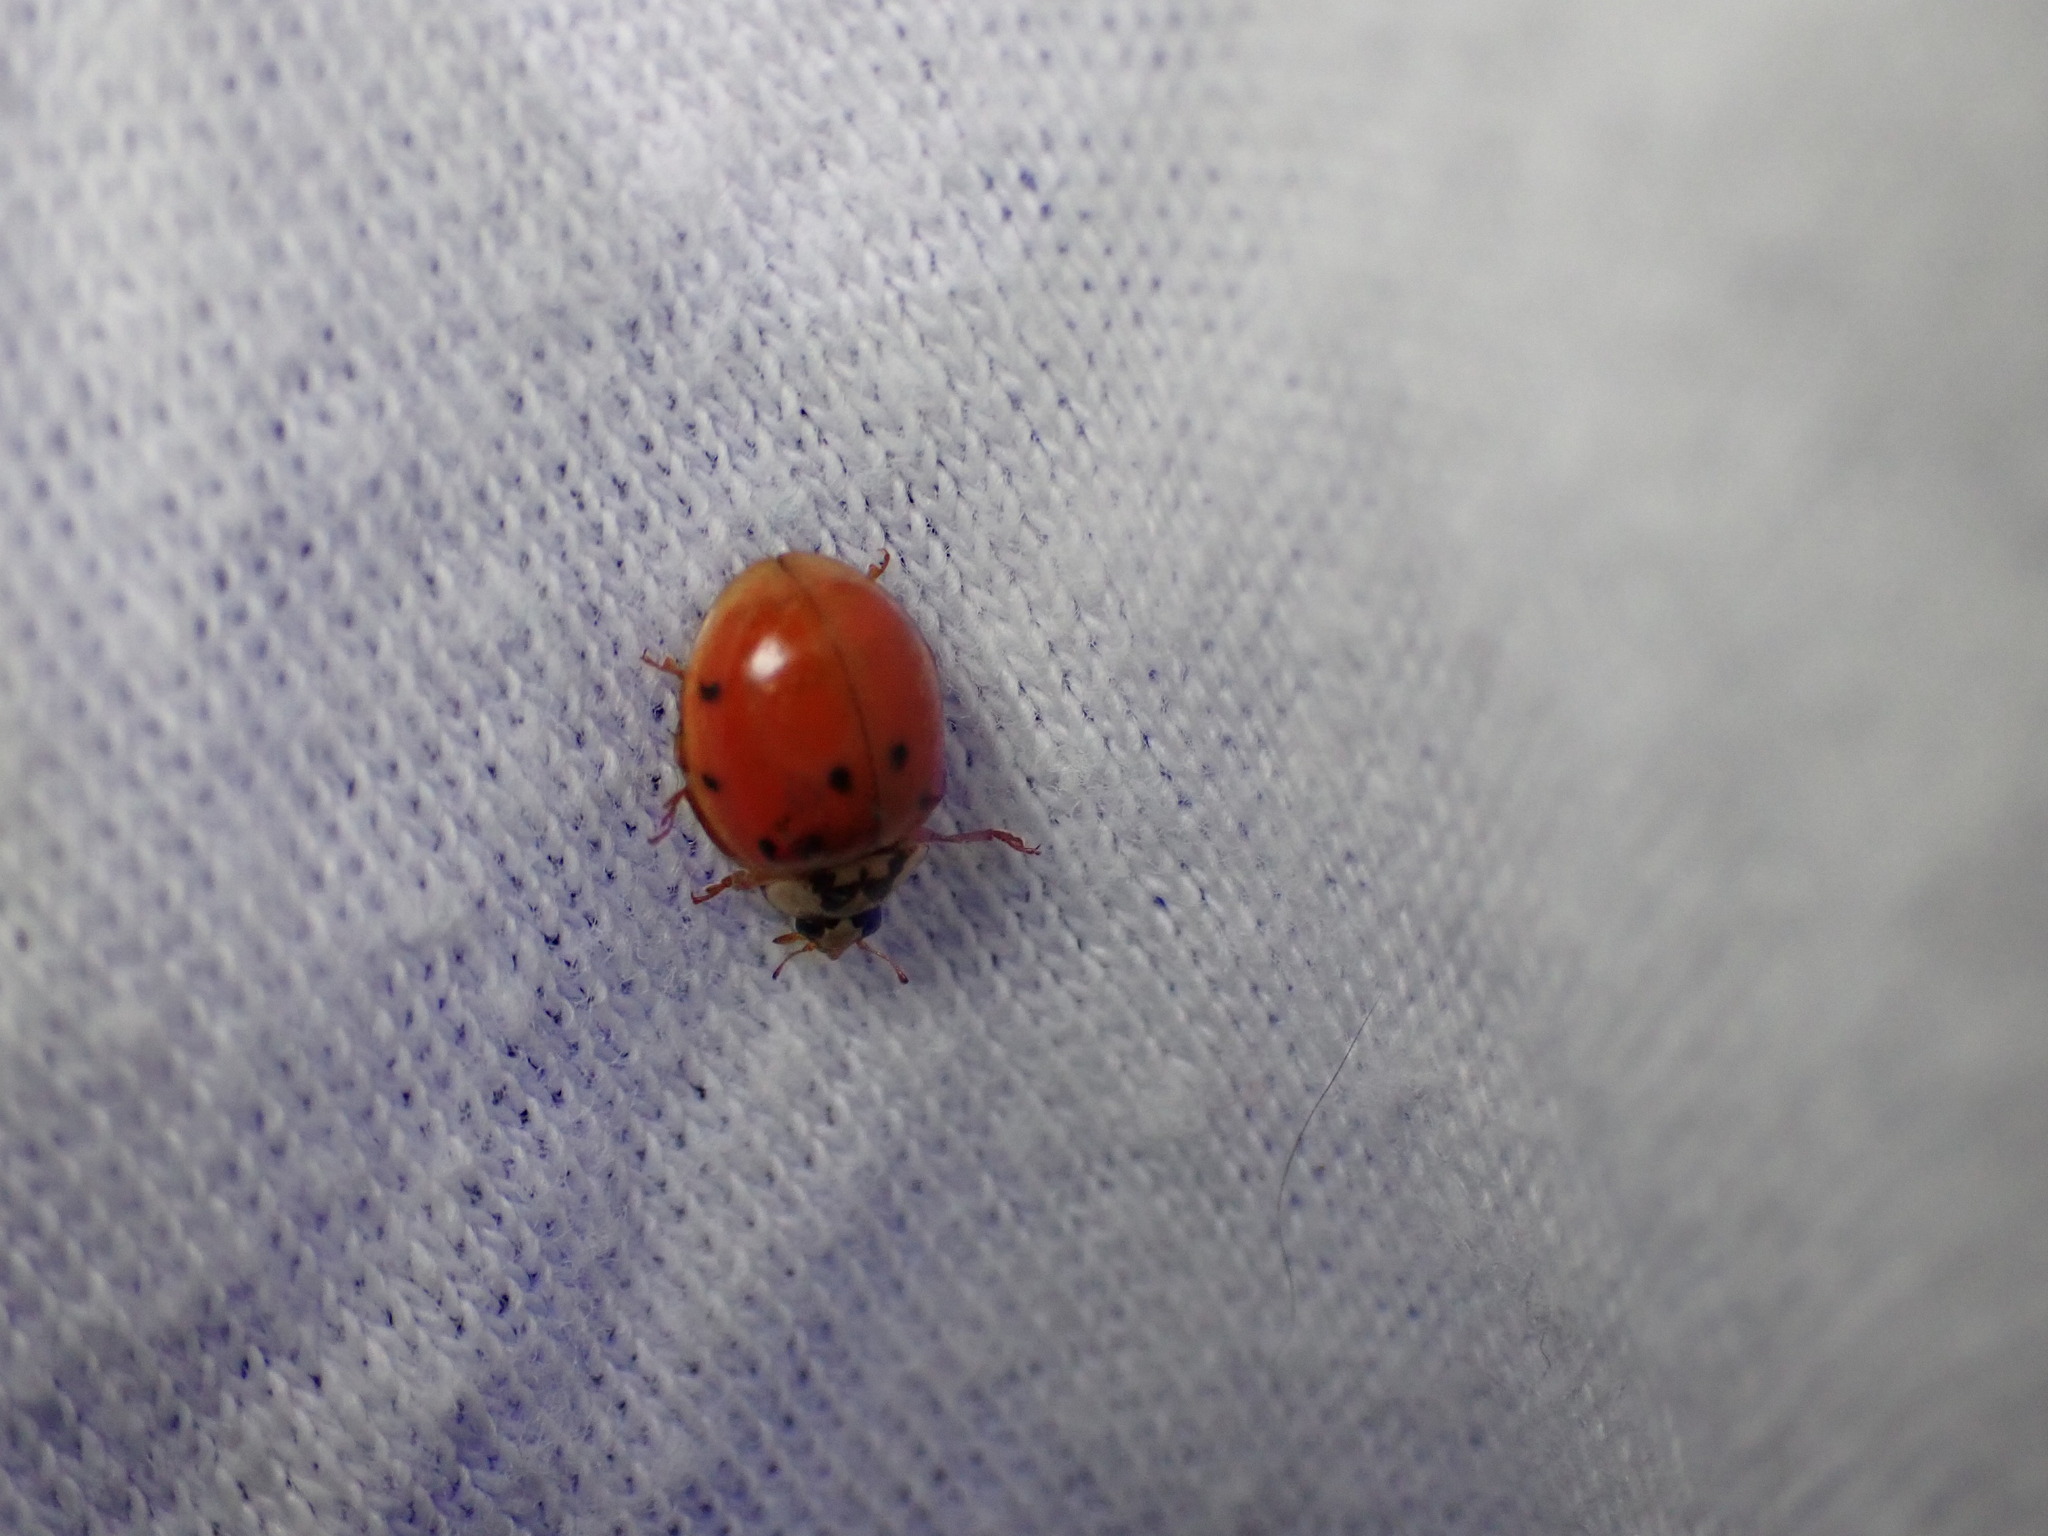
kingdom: Animalia
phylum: Arthropoda
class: Insecta
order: Coleoptera
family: Coccinellidae
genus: Harmonia
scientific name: Harmonia axyridis
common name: Harlequin ladybird
